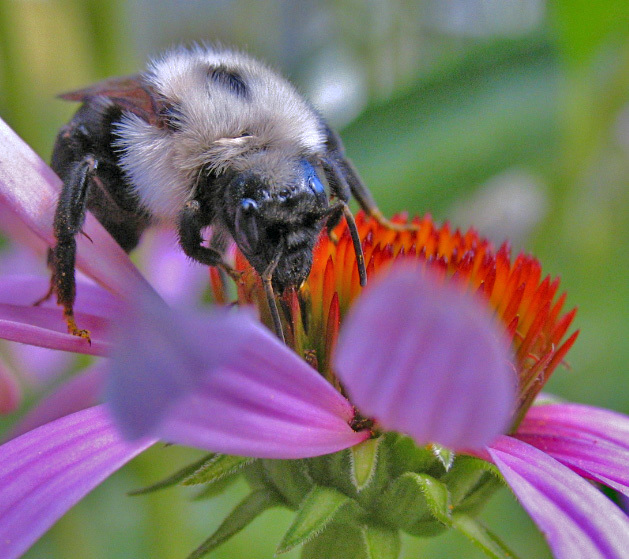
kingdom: Animalia
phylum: Arthropoda
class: Insecta
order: Hymenoptera
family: Apidae
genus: Bombus
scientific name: Bombus citrinus
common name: Lemon cuckoo bumble bee
